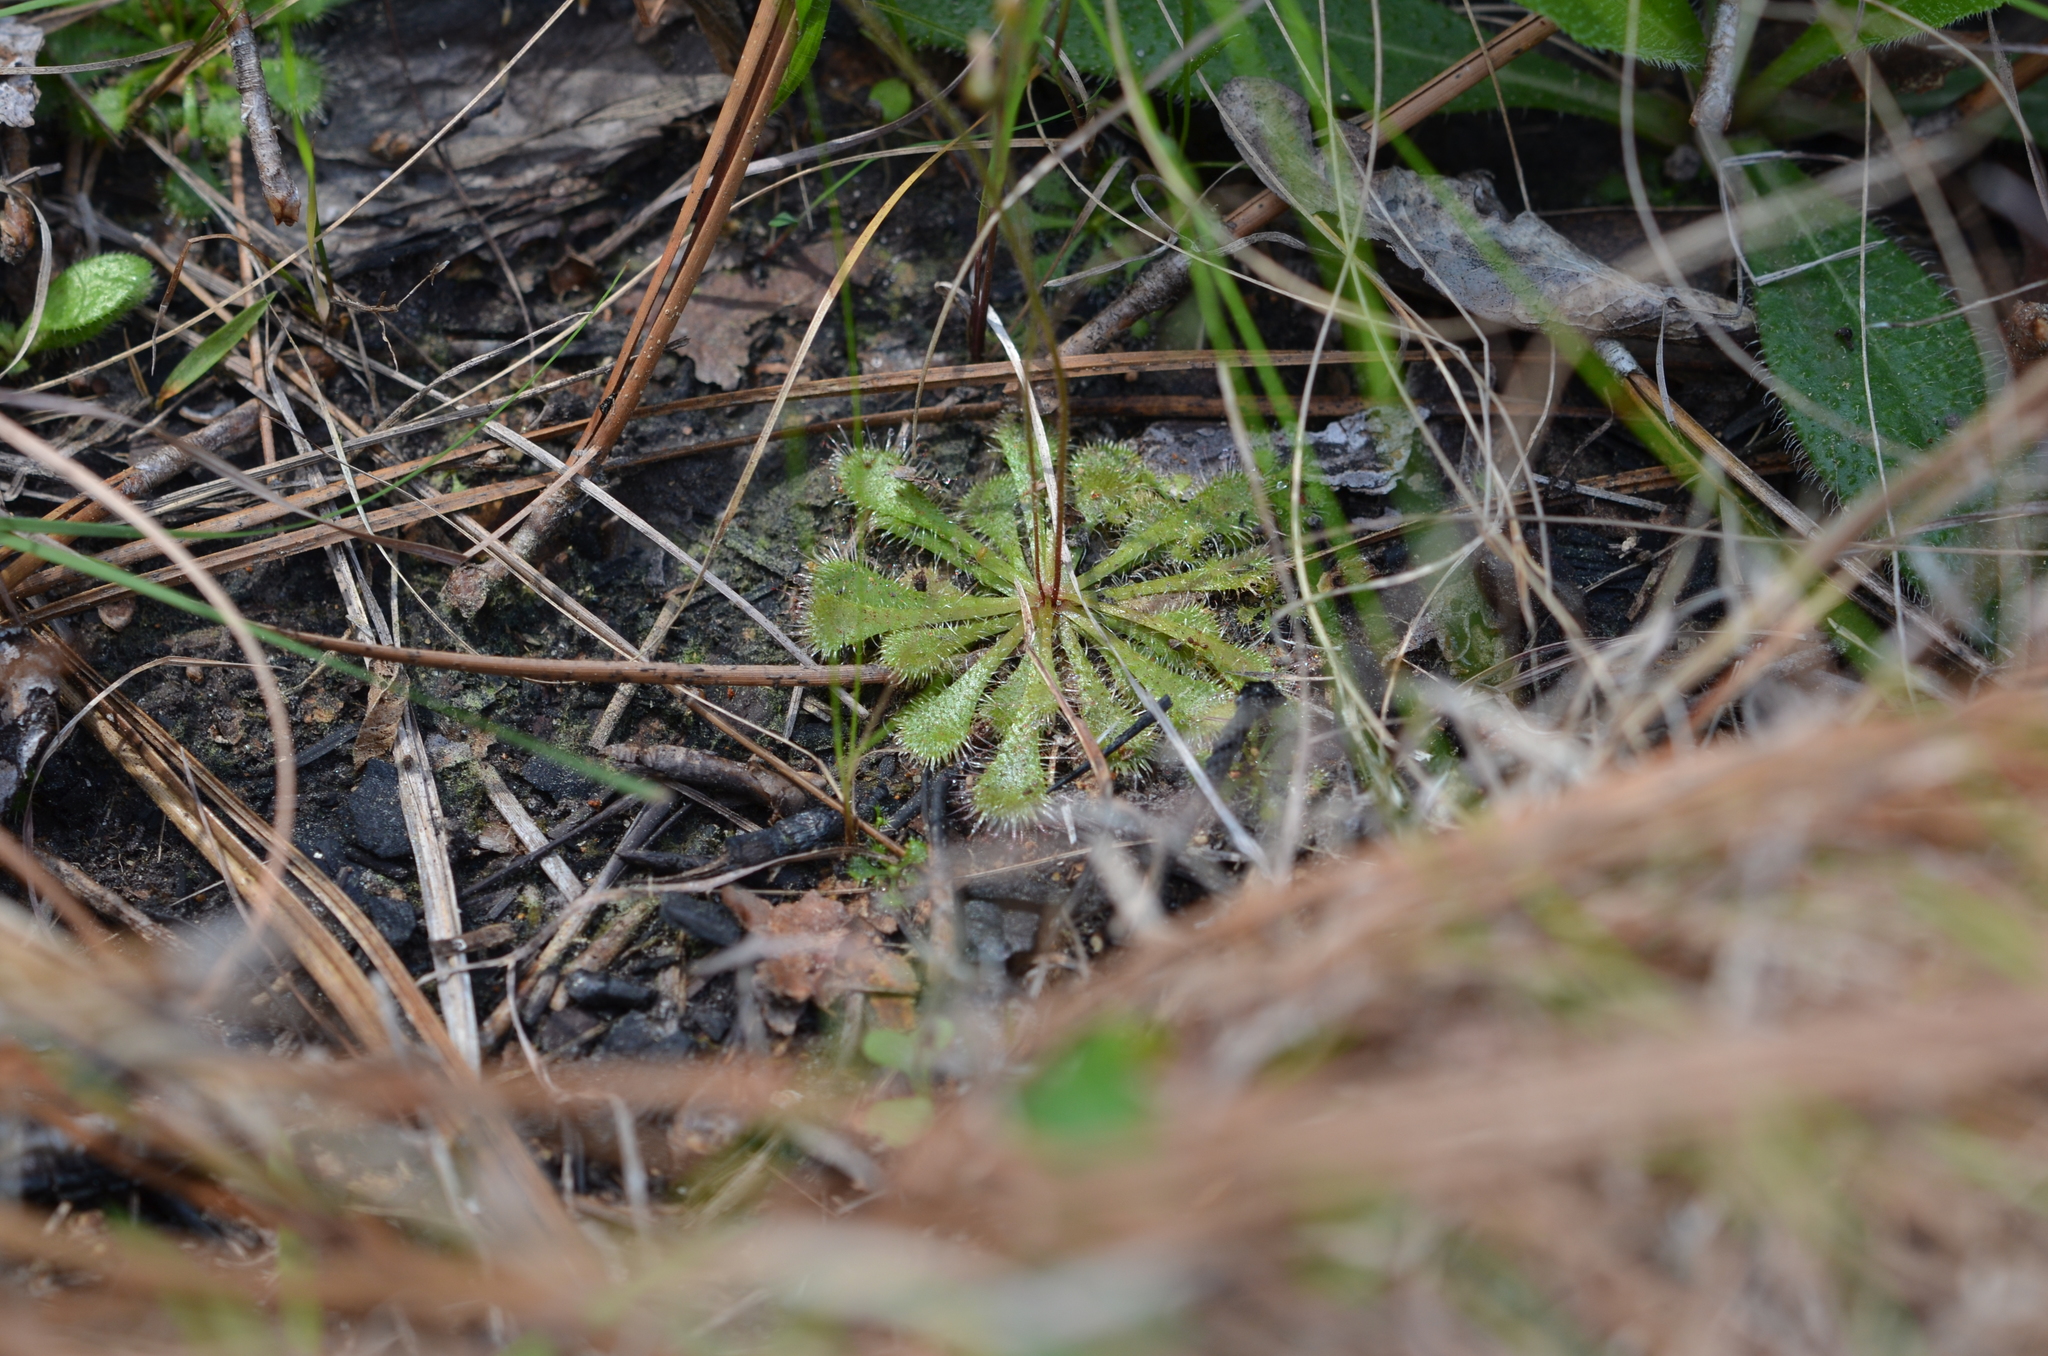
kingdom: Plantae
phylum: Tracheophyta
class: Magnoliopsida
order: Caryophyllales
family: Droseraceae
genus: Drosera
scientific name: Drosera brevifolia
